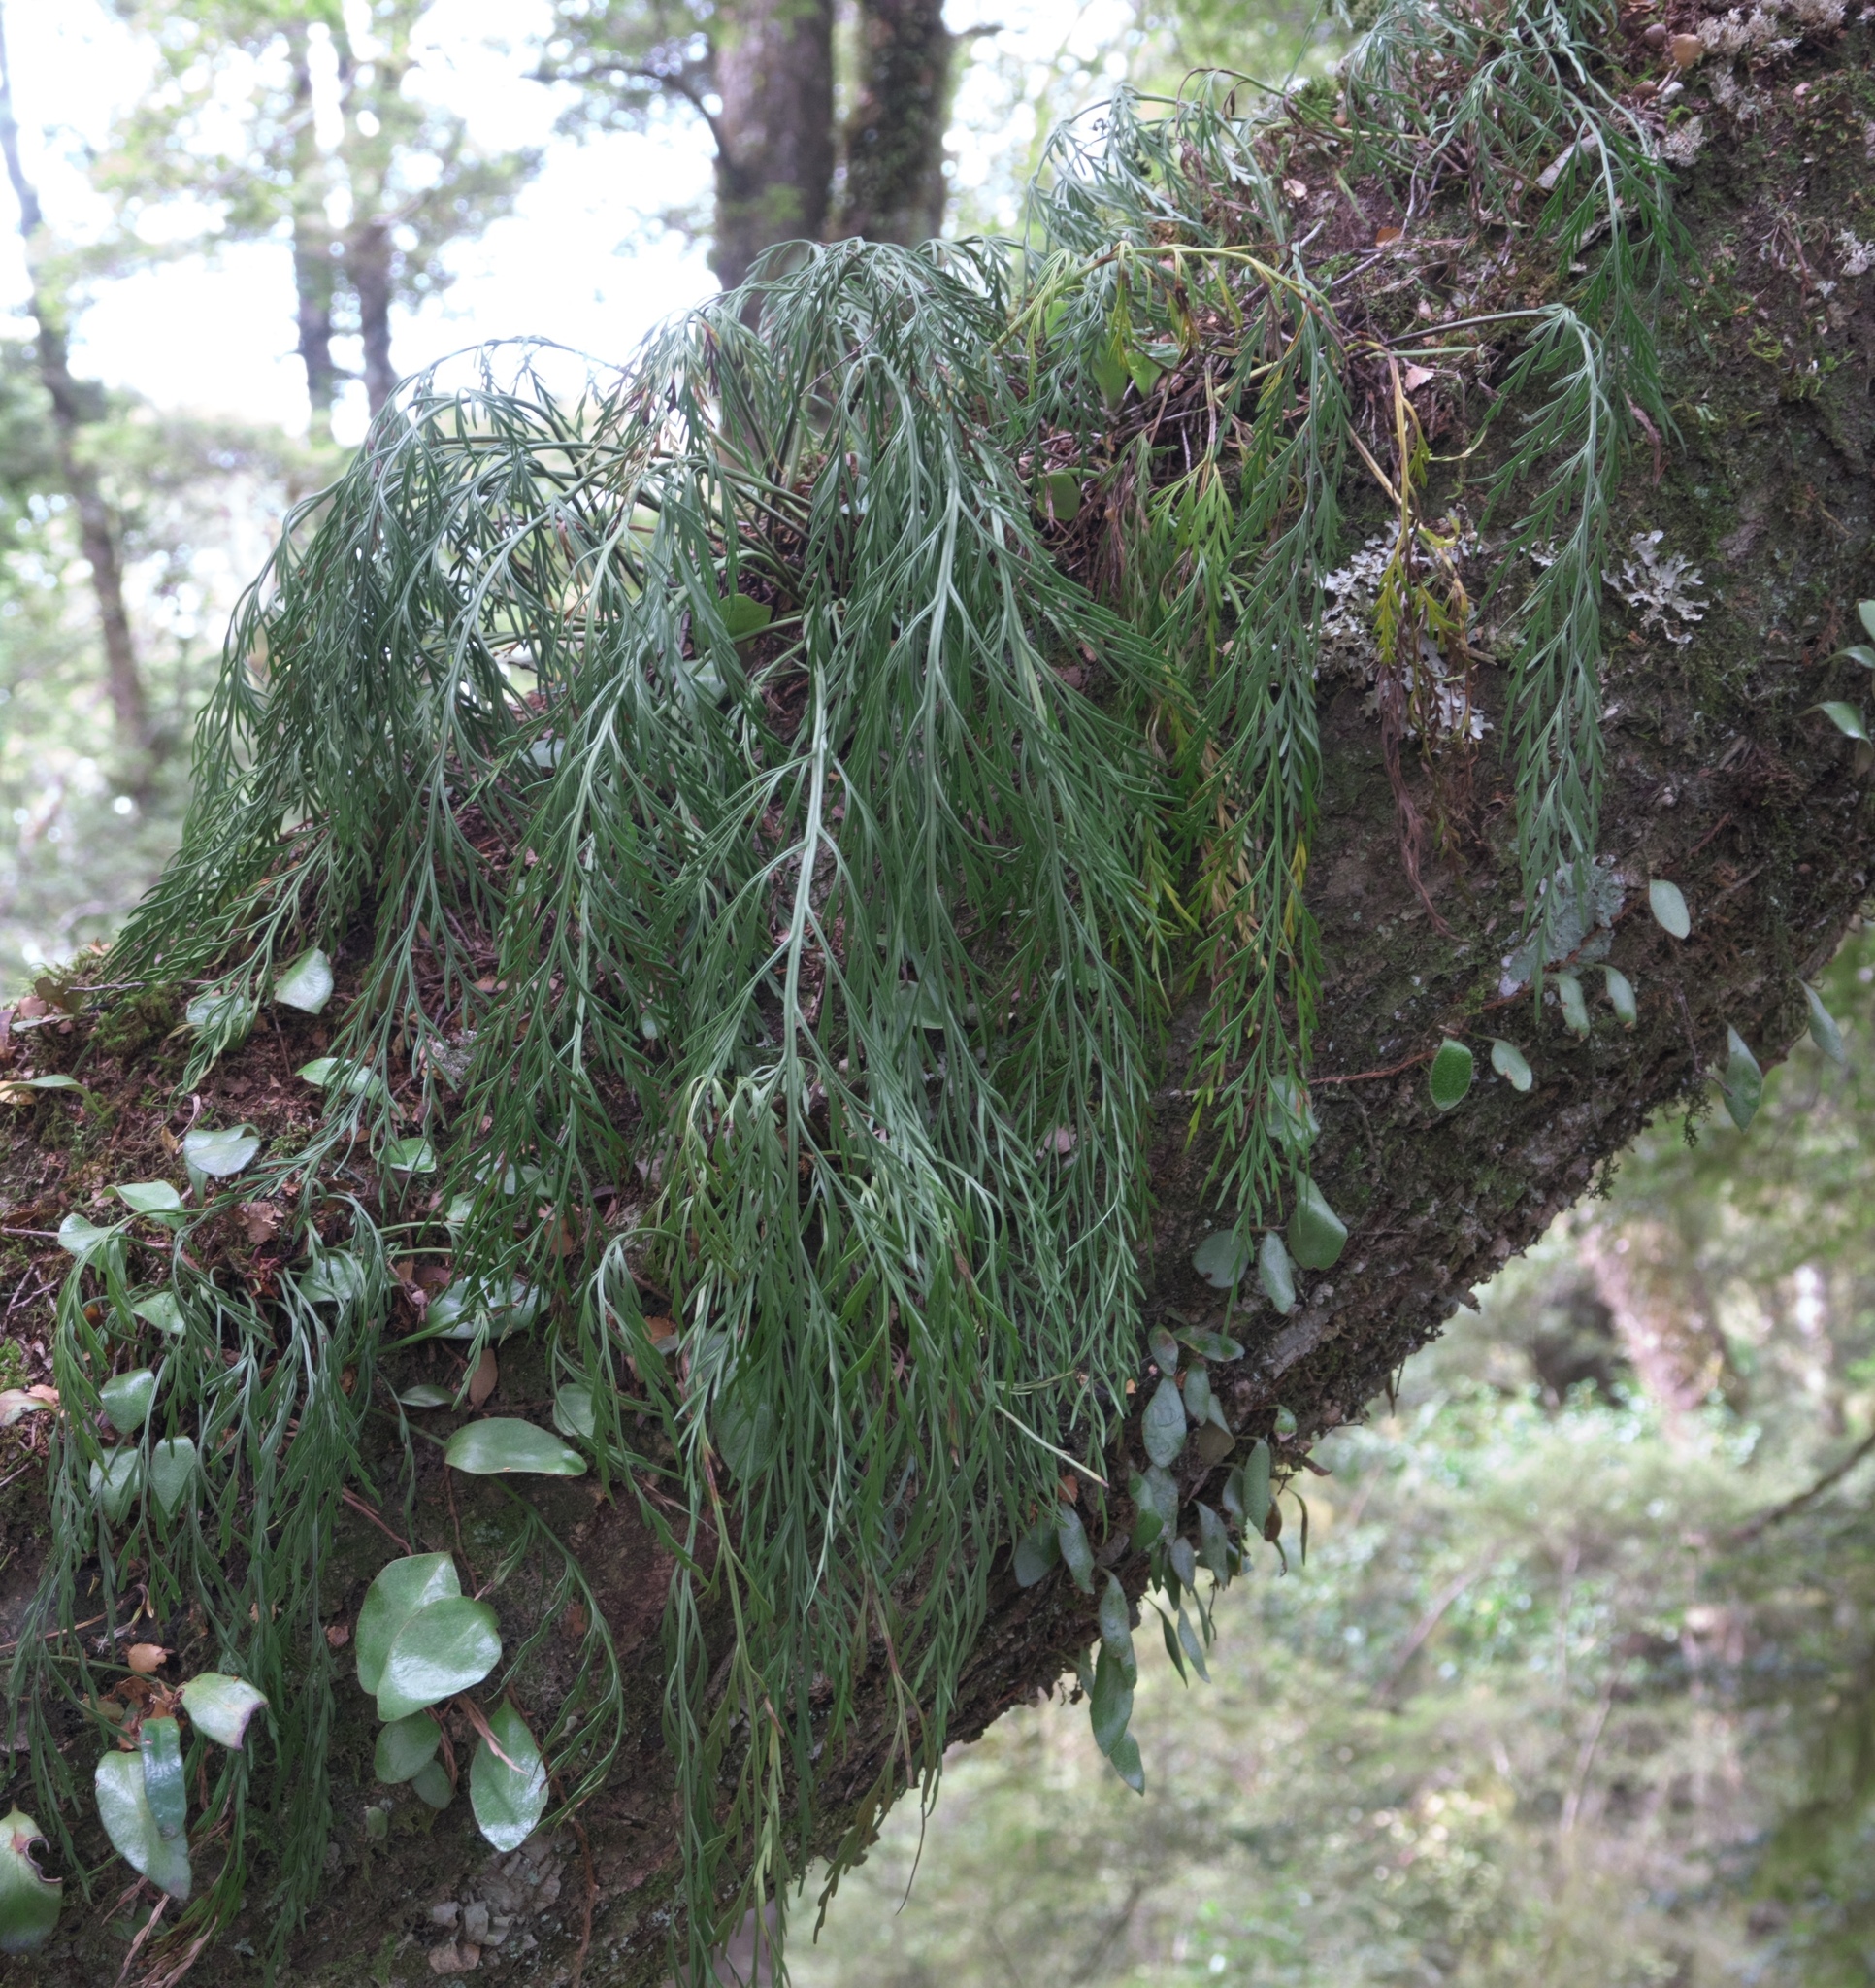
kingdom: Plantae
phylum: Tracheophyta
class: Polypodiopsida
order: Polypodiales
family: Aspleniaceae
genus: Asplenium
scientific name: Asplenium flaccidum
